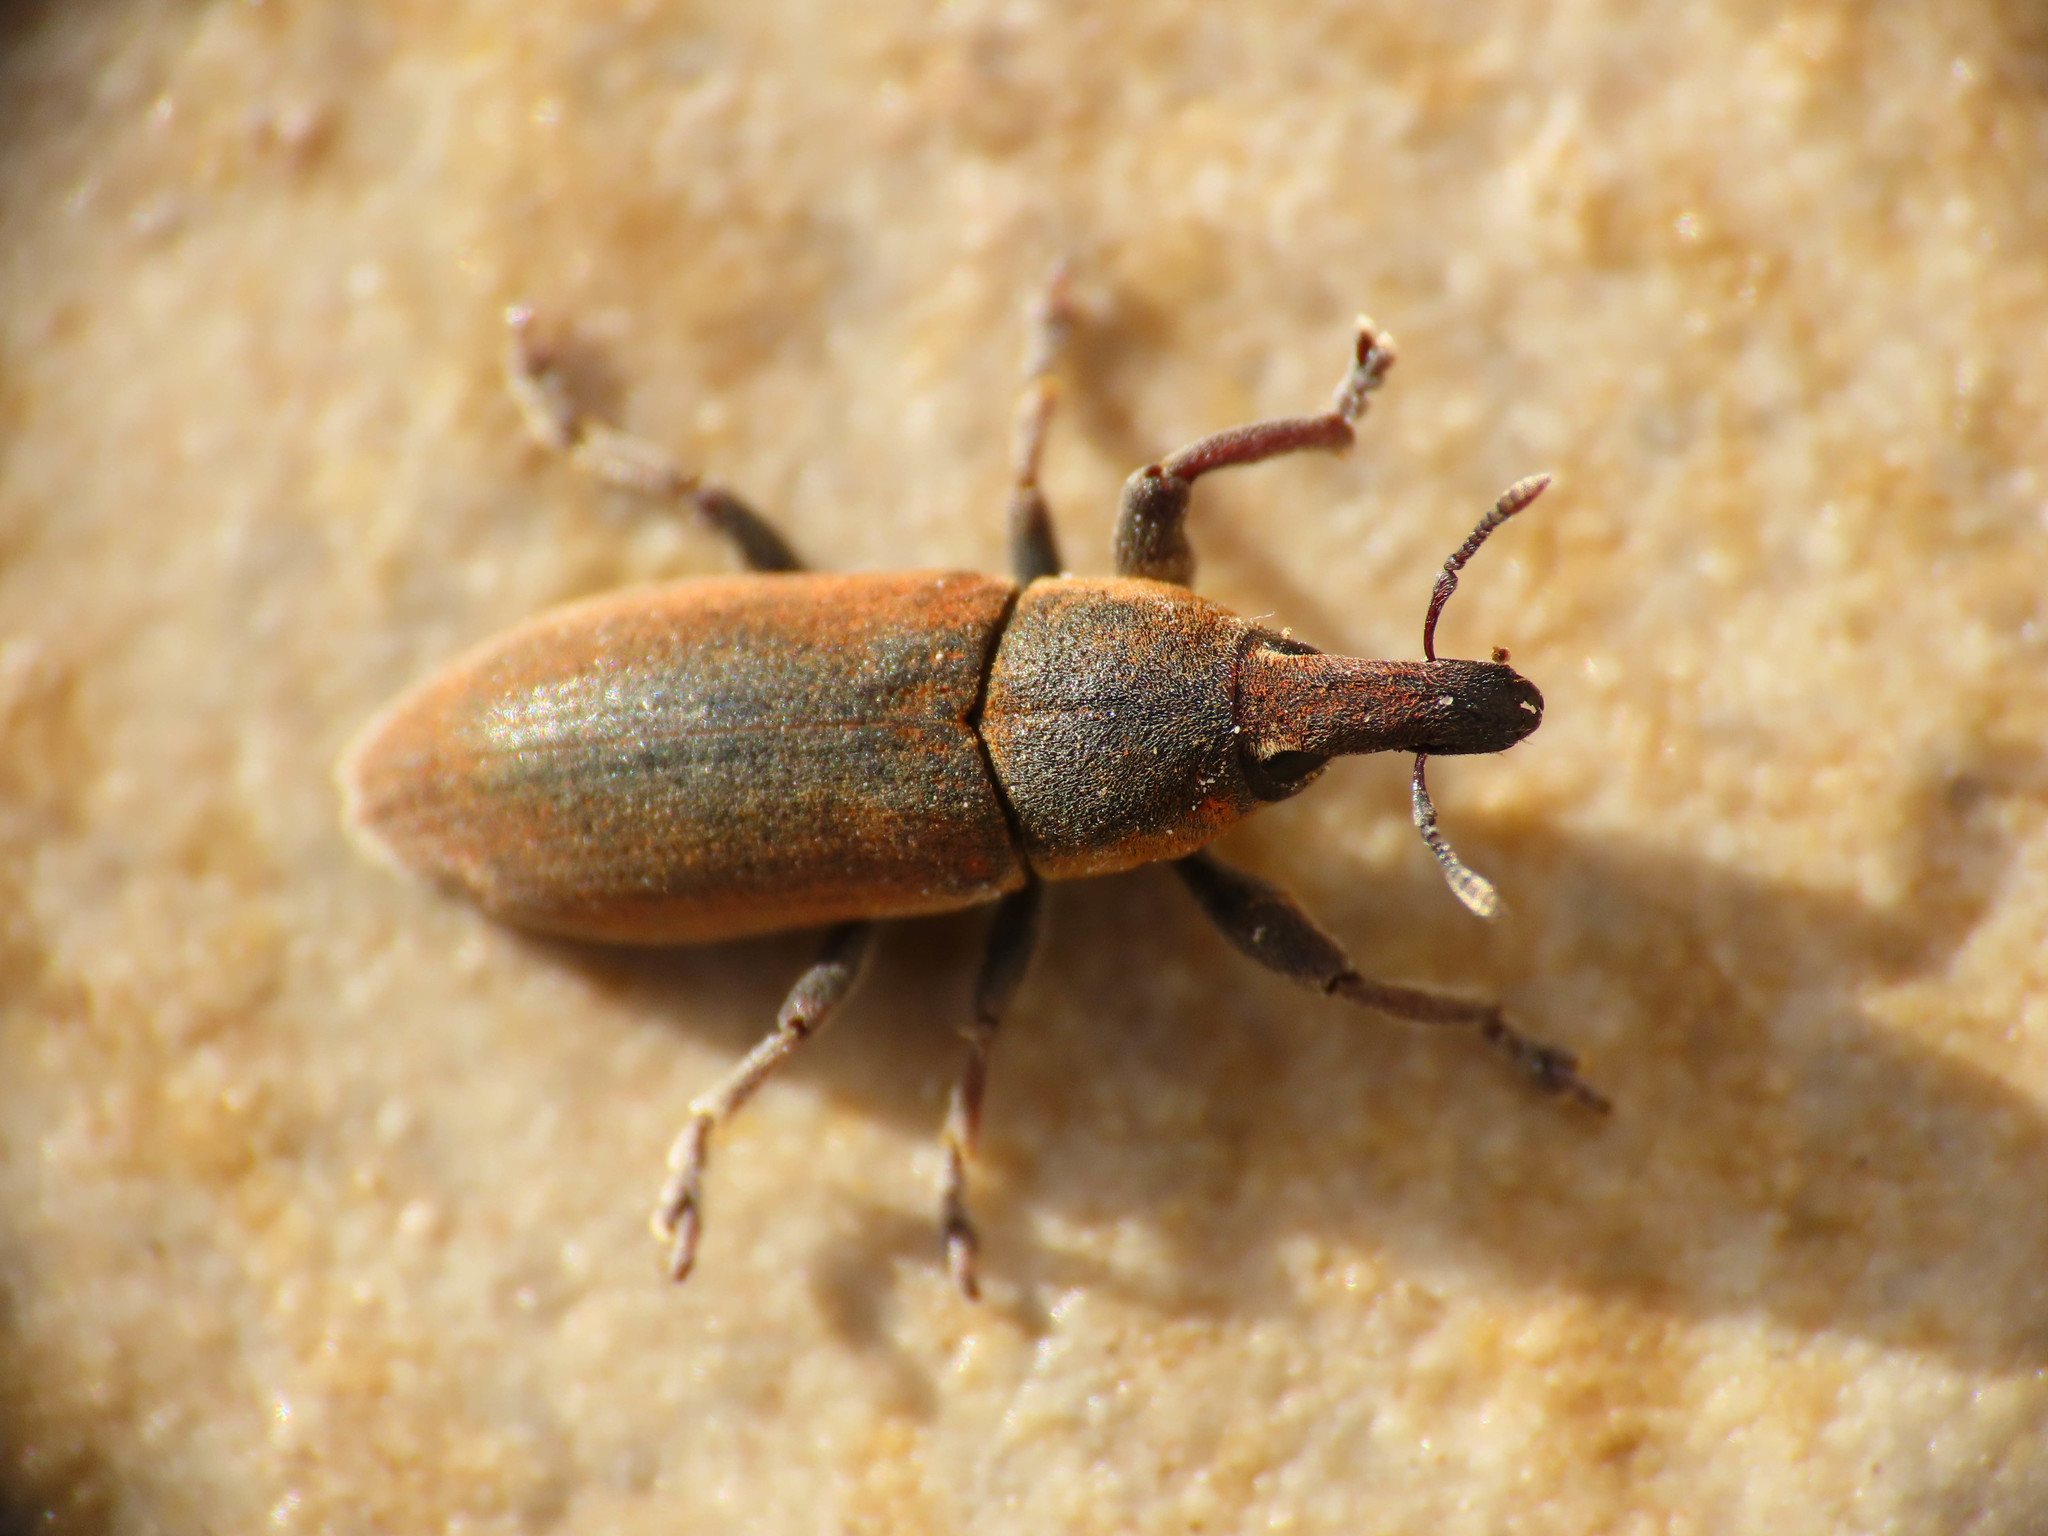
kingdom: Animalia
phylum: Arthropoda
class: Insecta
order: Coleoptera
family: Curculionidae
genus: Lixus
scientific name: Lixus angustus
